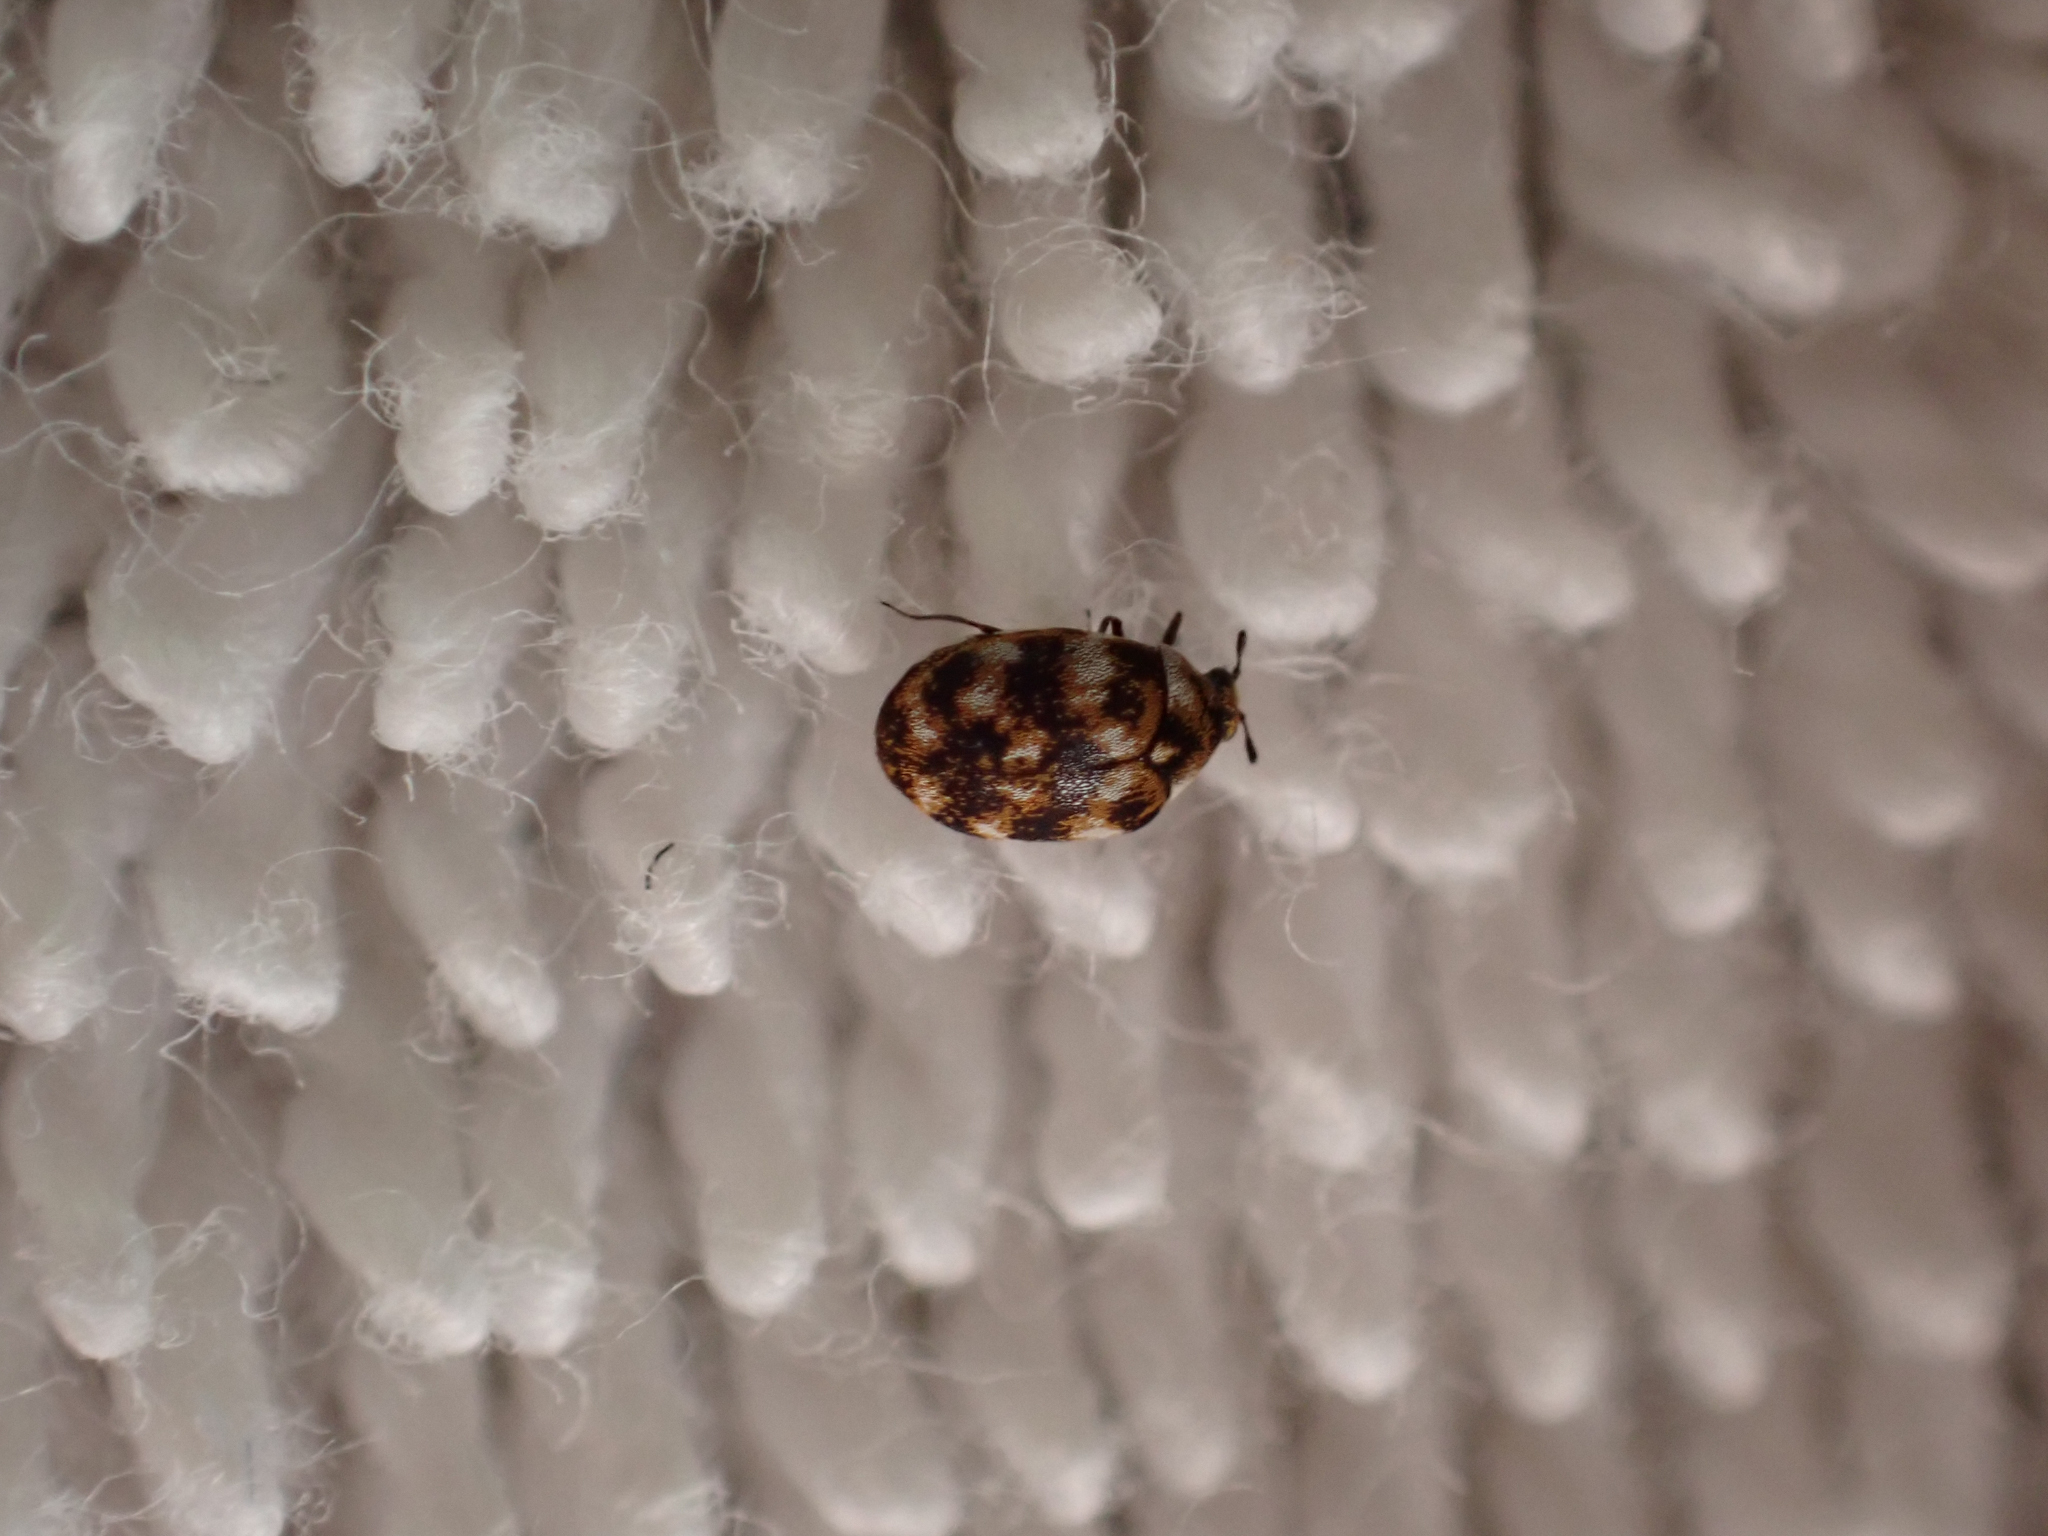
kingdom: Animalia
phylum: Arthropoda
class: Insecta
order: Coleoptera
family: Dermestidae
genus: Anthrenus
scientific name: Anthrenus verbasci
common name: Varied carpet beetle
